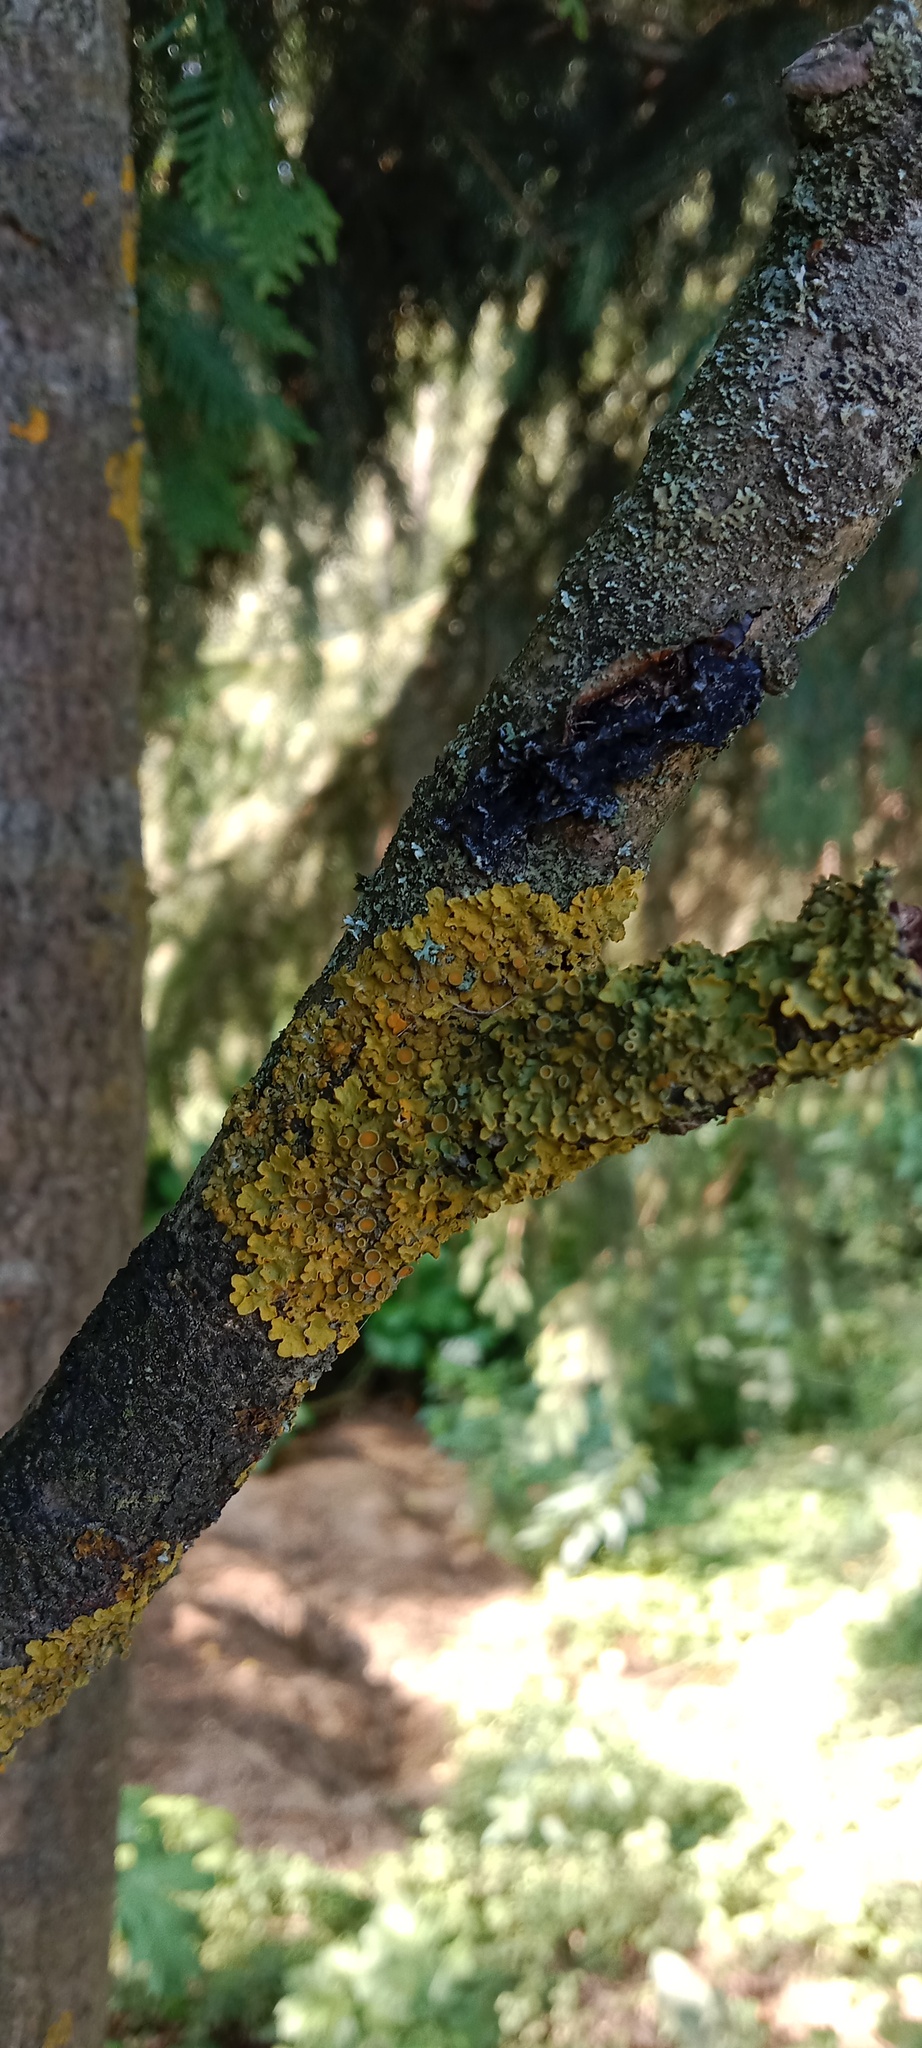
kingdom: Fungi
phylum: Ascomycota
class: Lecanoromycetes
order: Teloschistales
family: Teloschistaceae
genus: Xanthoria
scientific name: Xanthoria parietina
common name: Common orange lichen
